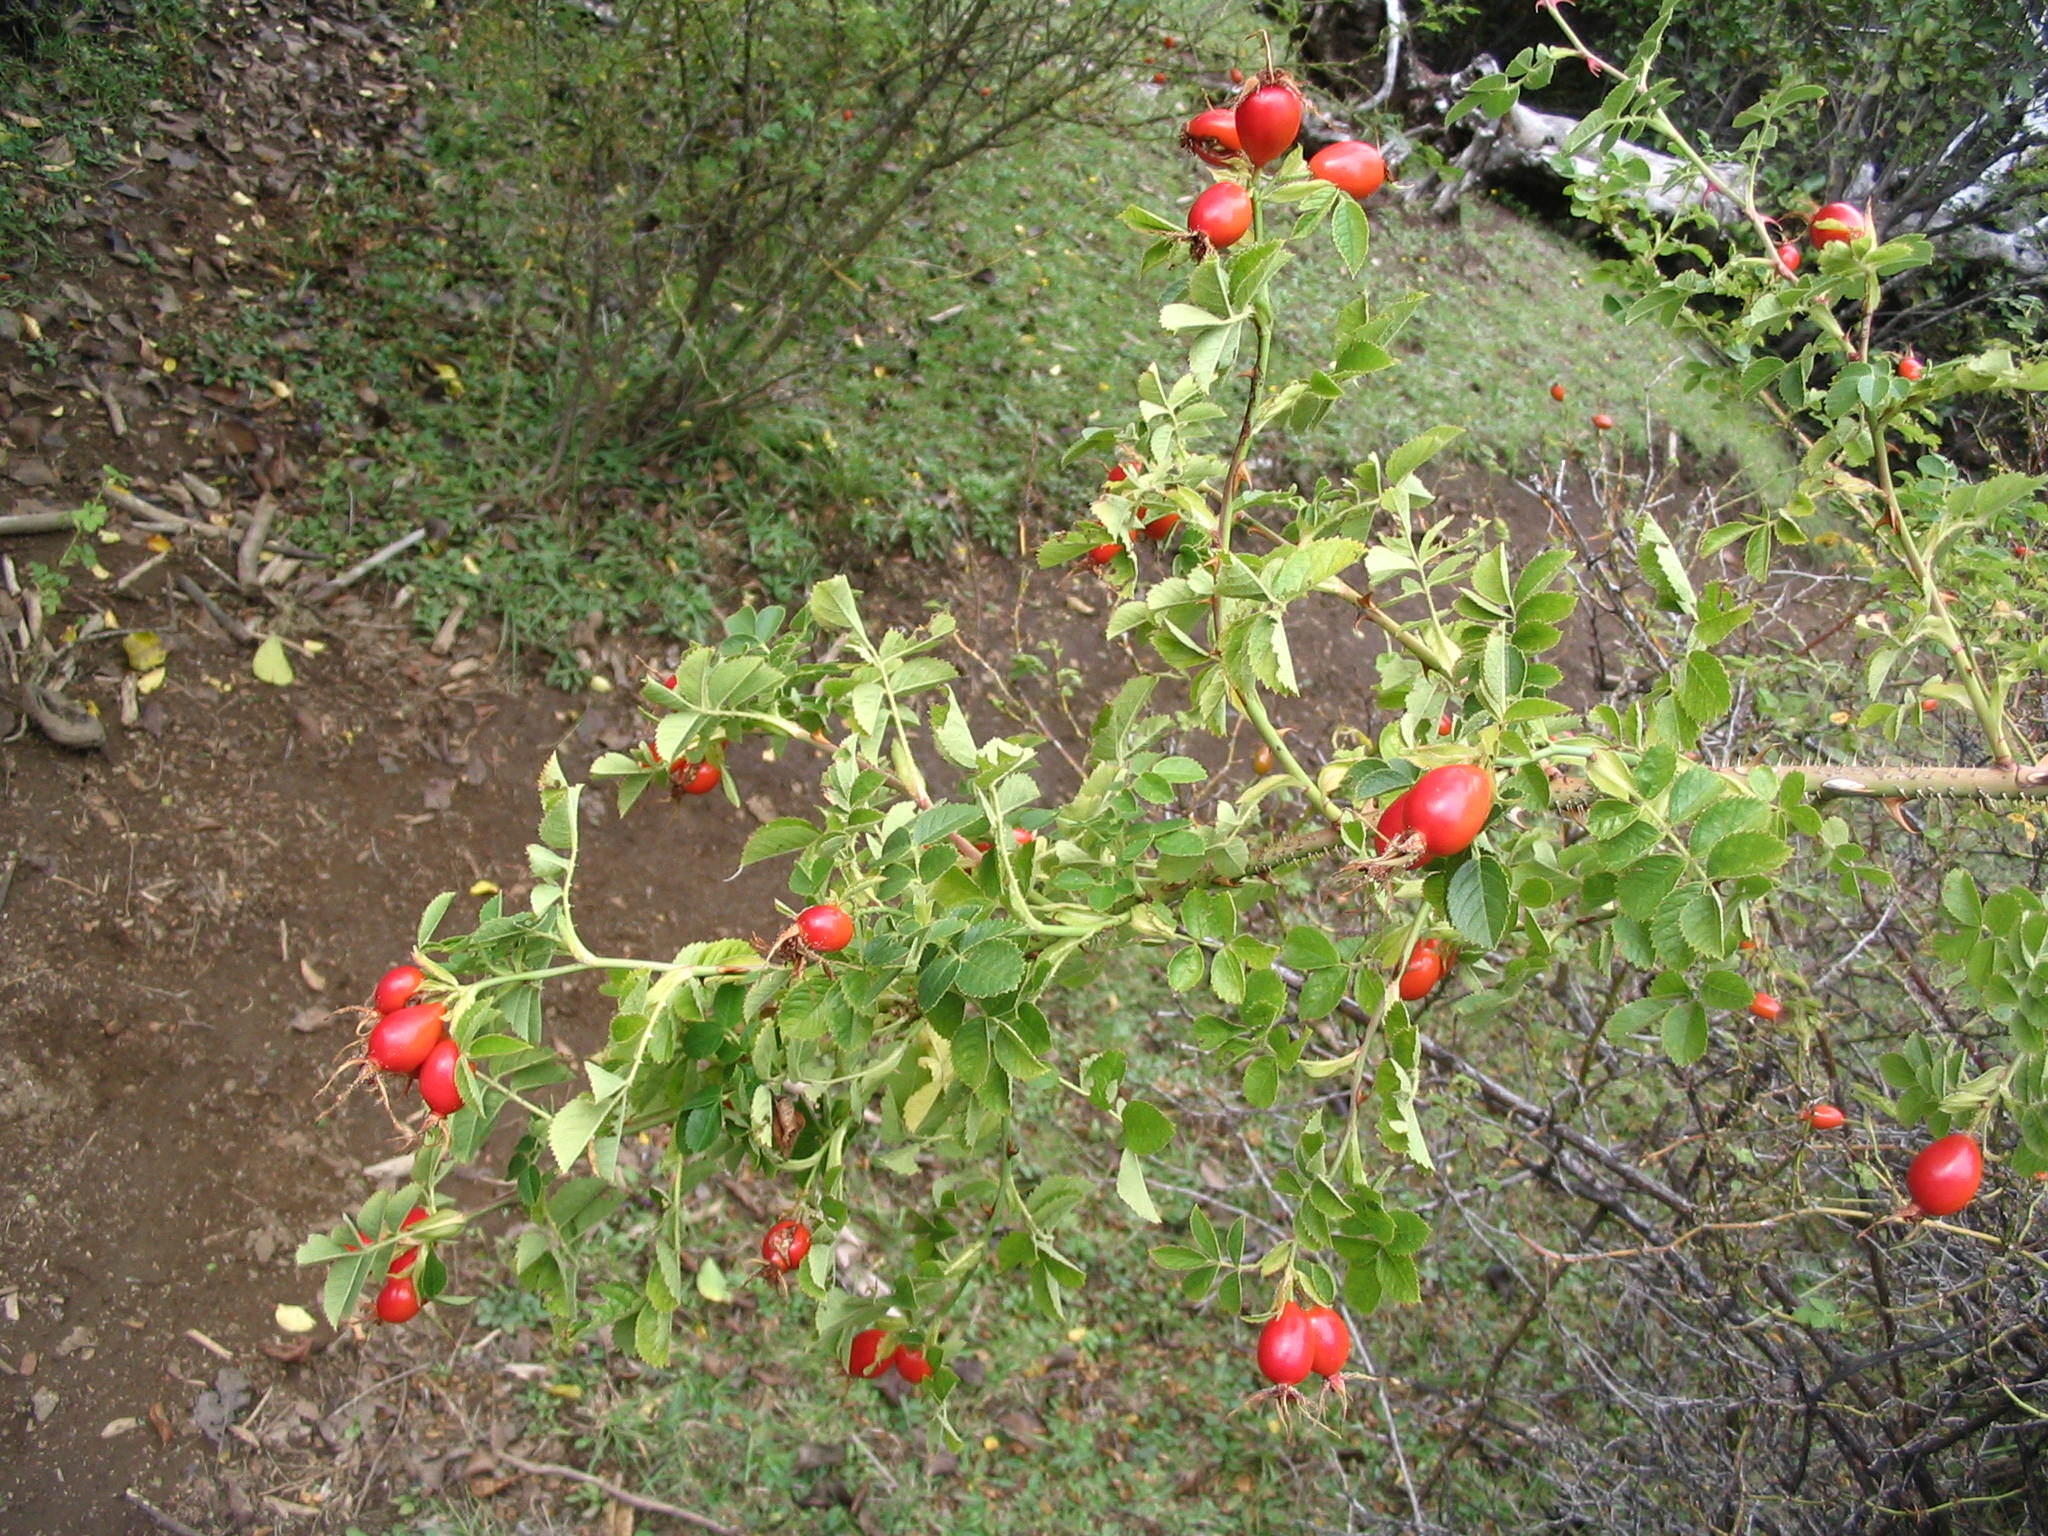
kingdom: Plantae
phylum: Tracheophyta
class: Magnoliopsida
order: Rosales
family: Rosaceae
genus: Rosa
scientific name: Rosa rubiginosa
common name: Sweet-briar
